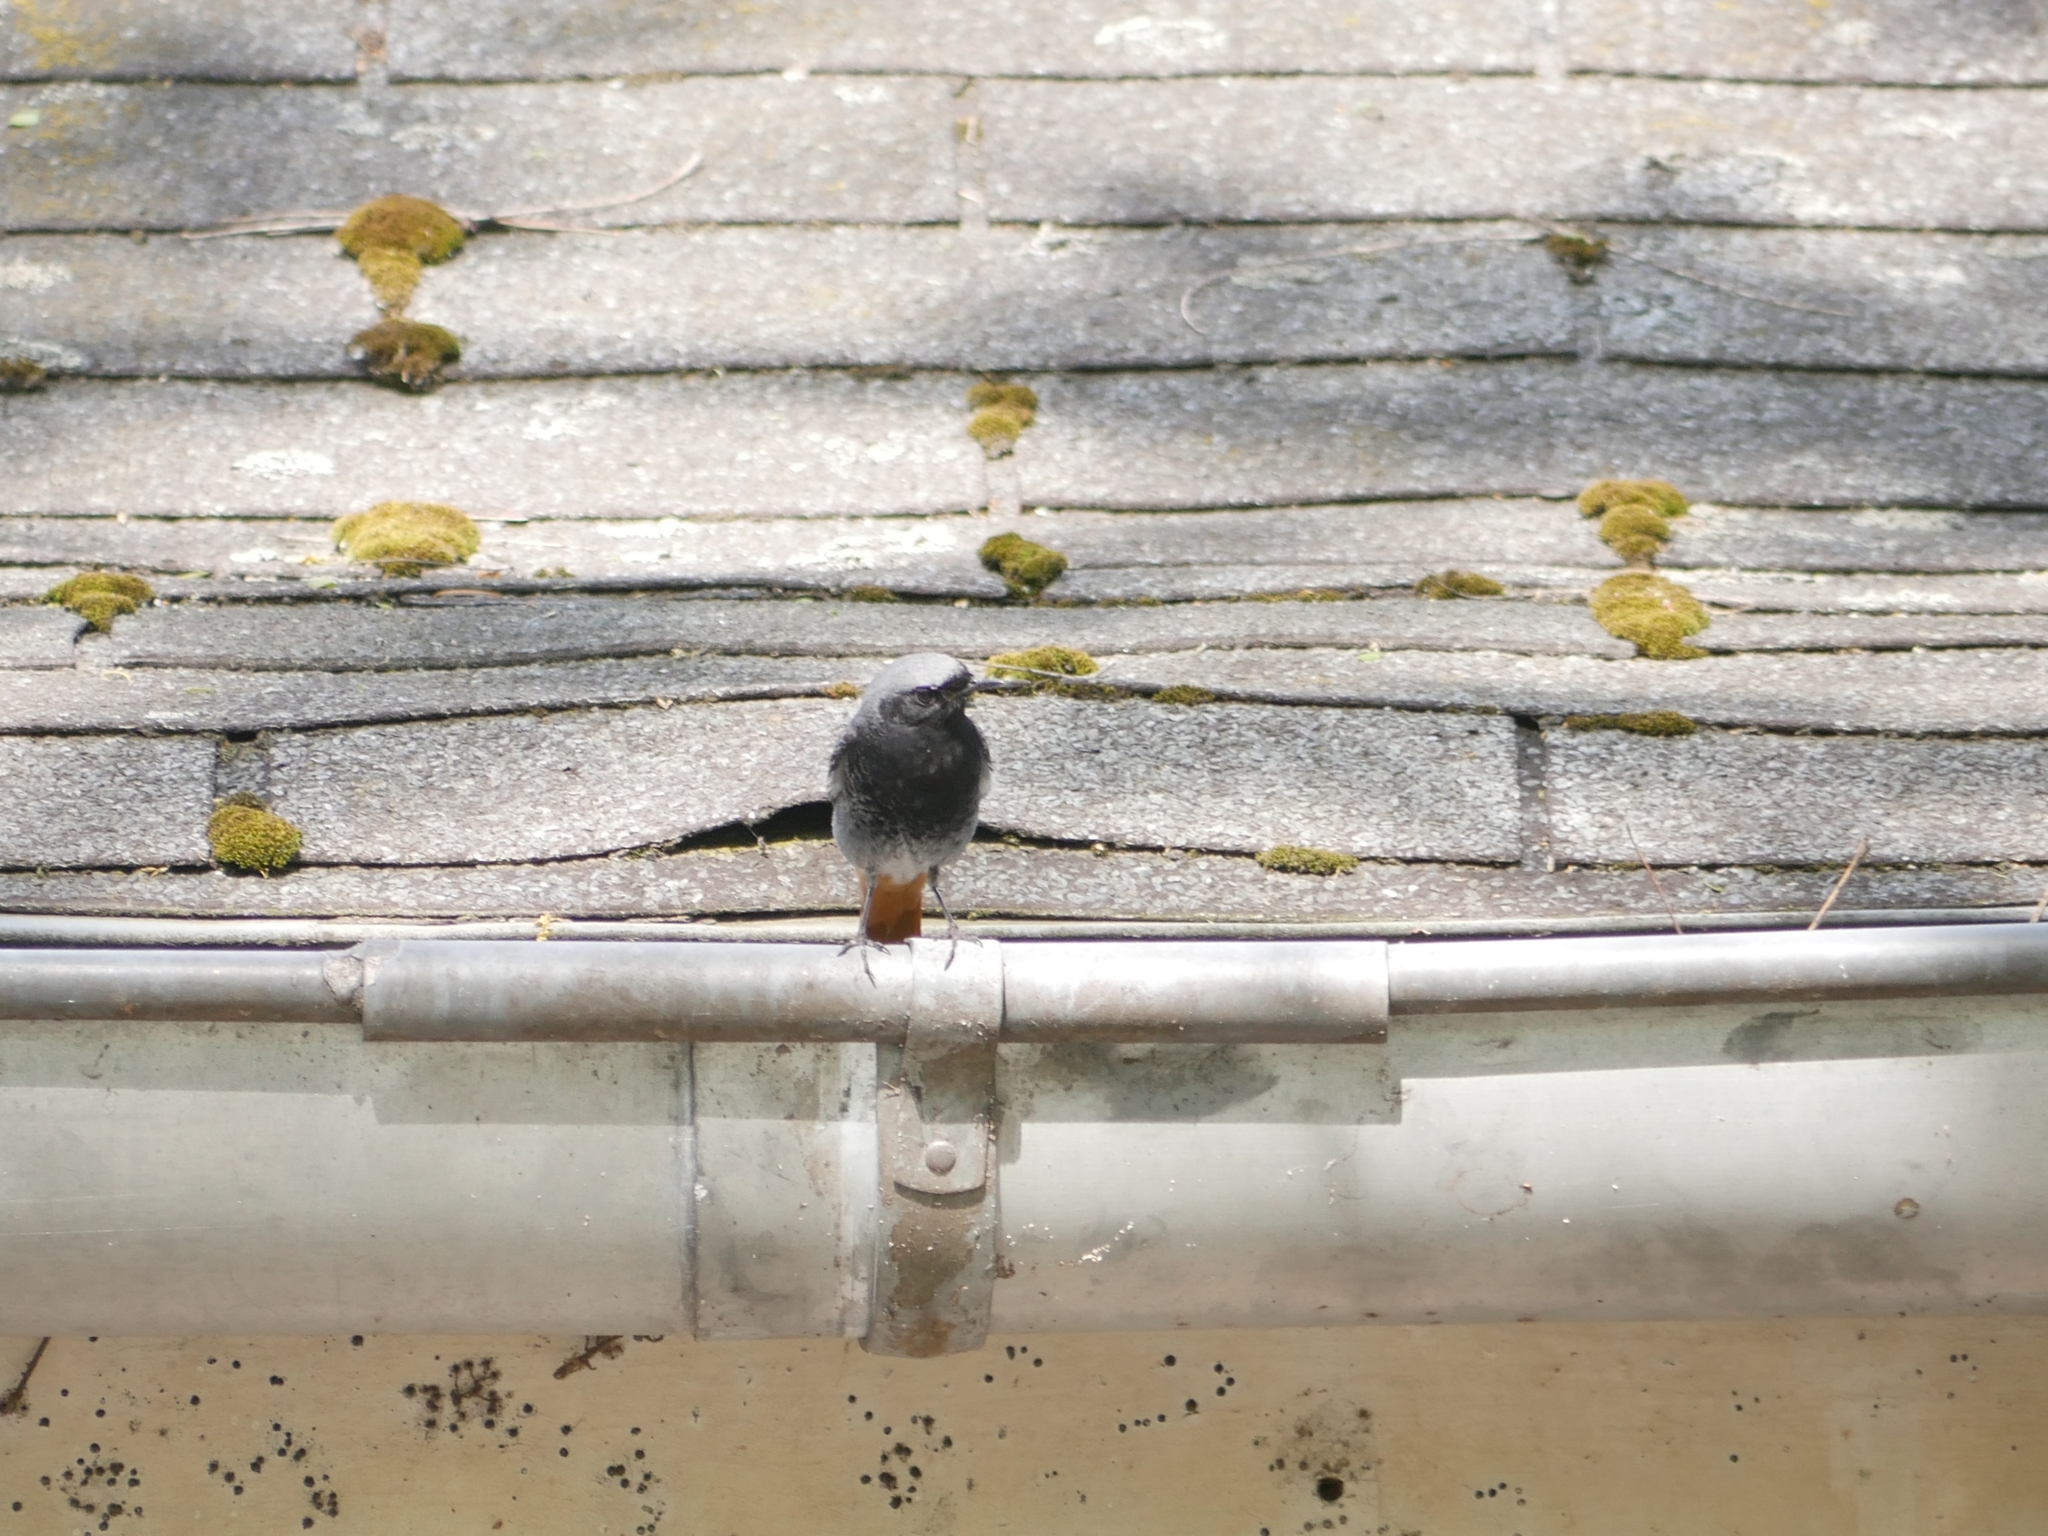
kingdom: Animalia
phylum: Chordata
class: Aves
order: Passeriformes
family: Muscicapidae
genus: Phoenicurus
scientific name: Phoenicurus ochruros
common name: Black redstart
